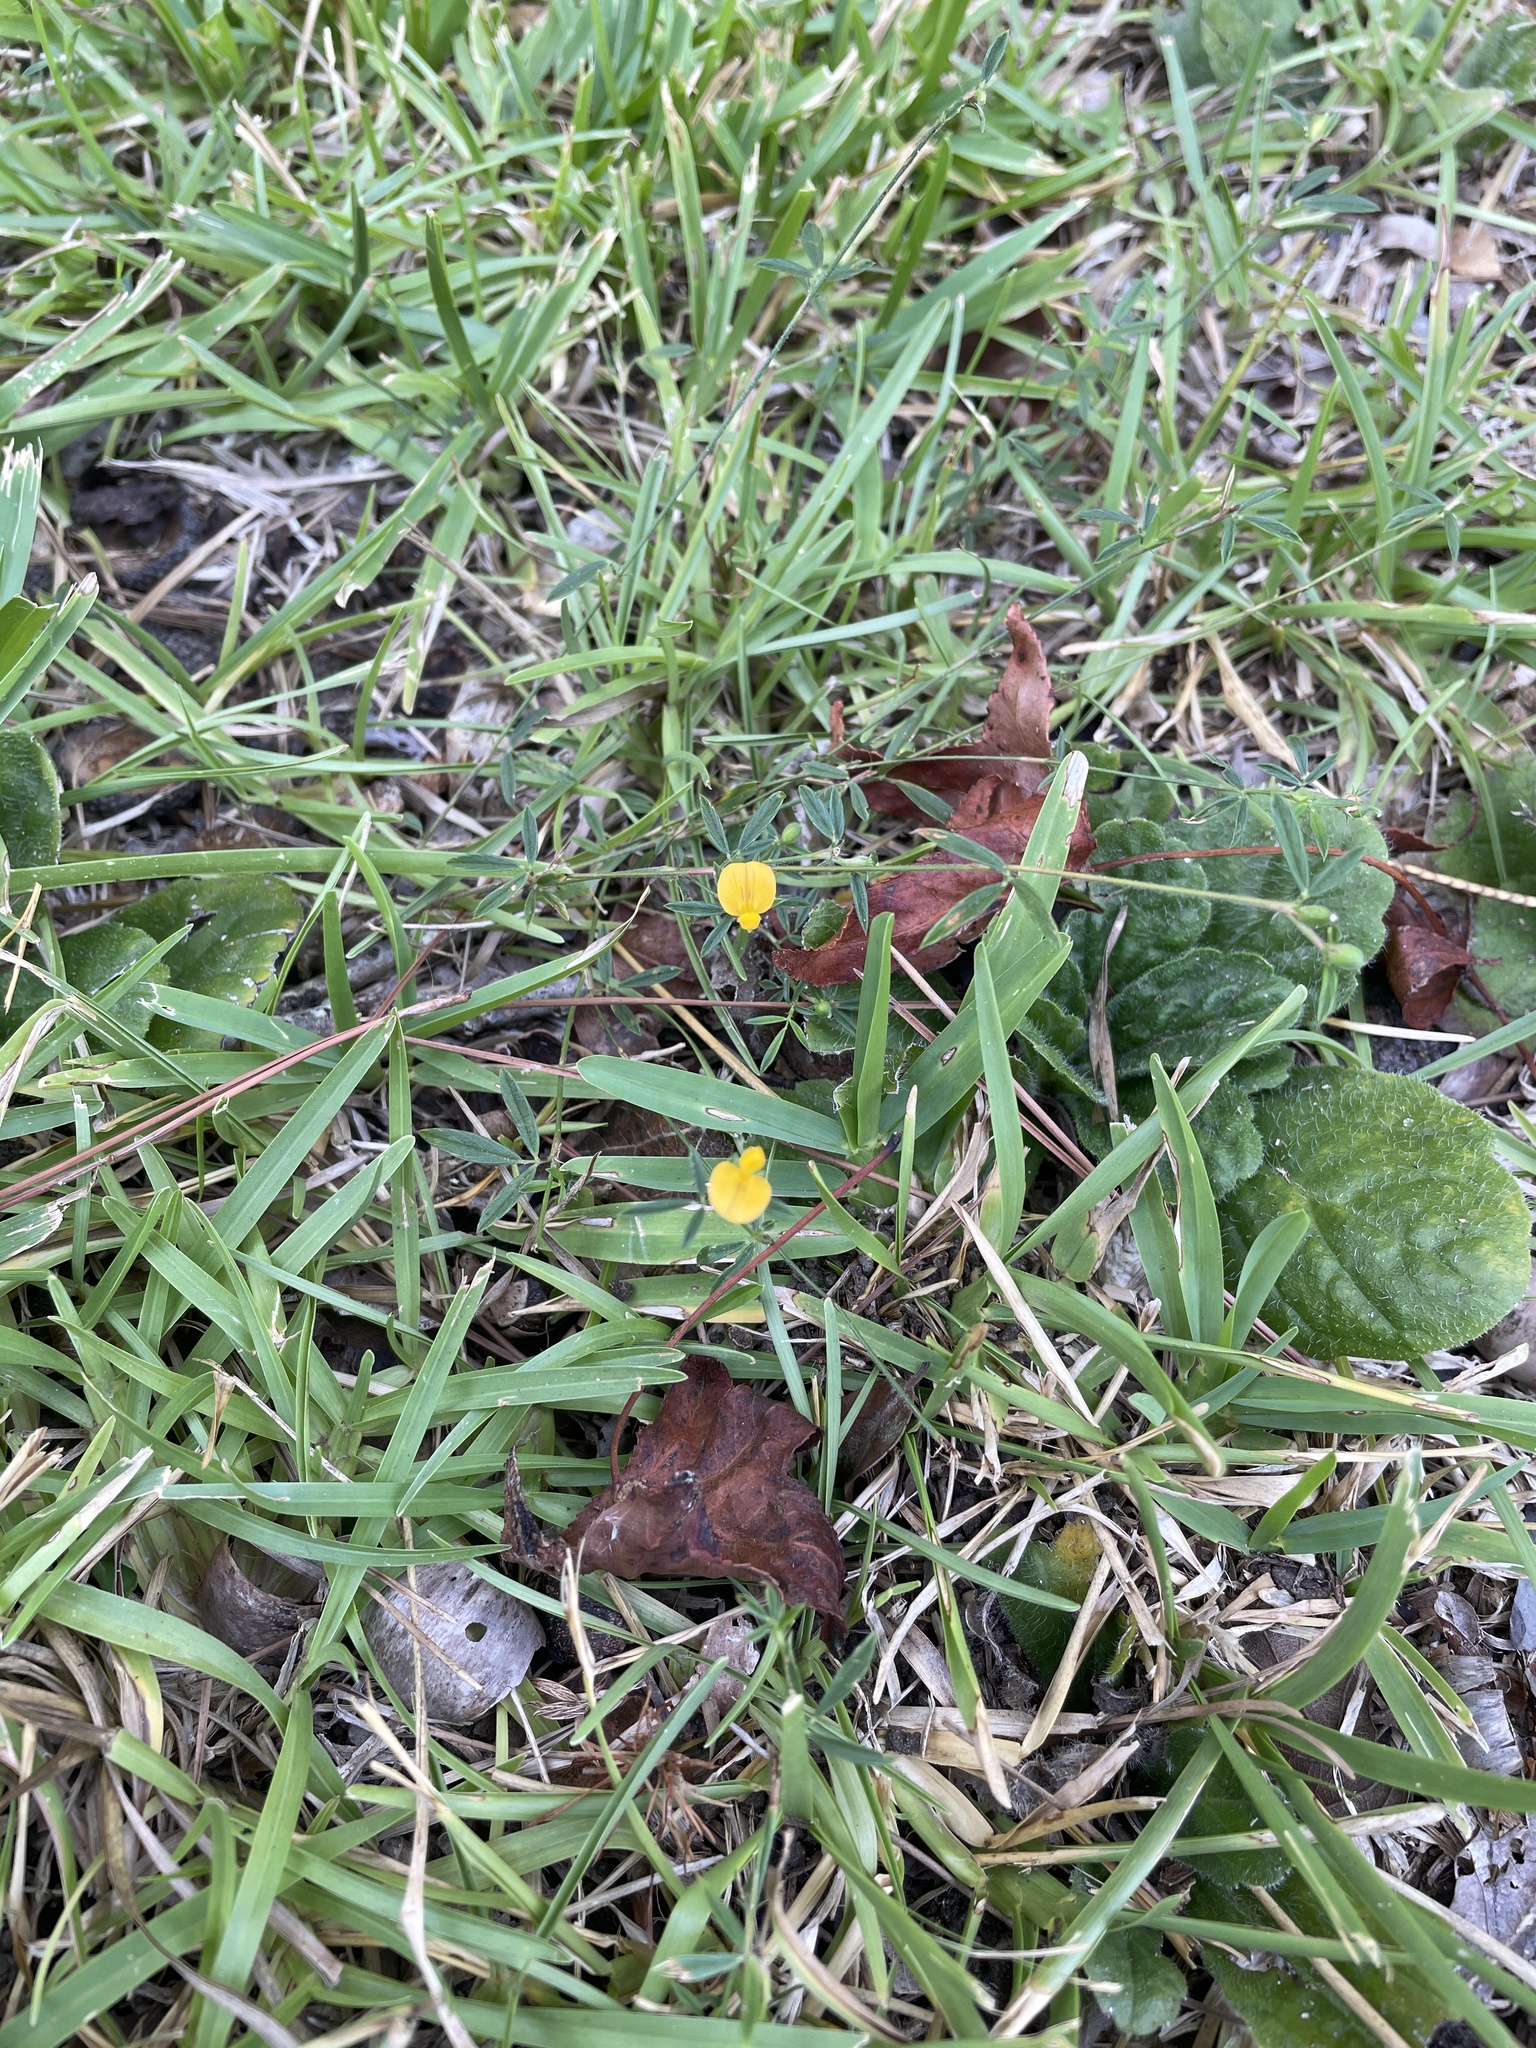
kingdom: Plantae
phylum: Tracheophyta
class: Magnoliopsida
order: Fabales
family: Fabaceae
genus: Stylosanthes
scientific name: Stylosanthes biflora
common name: Two-flower pencil-flower
